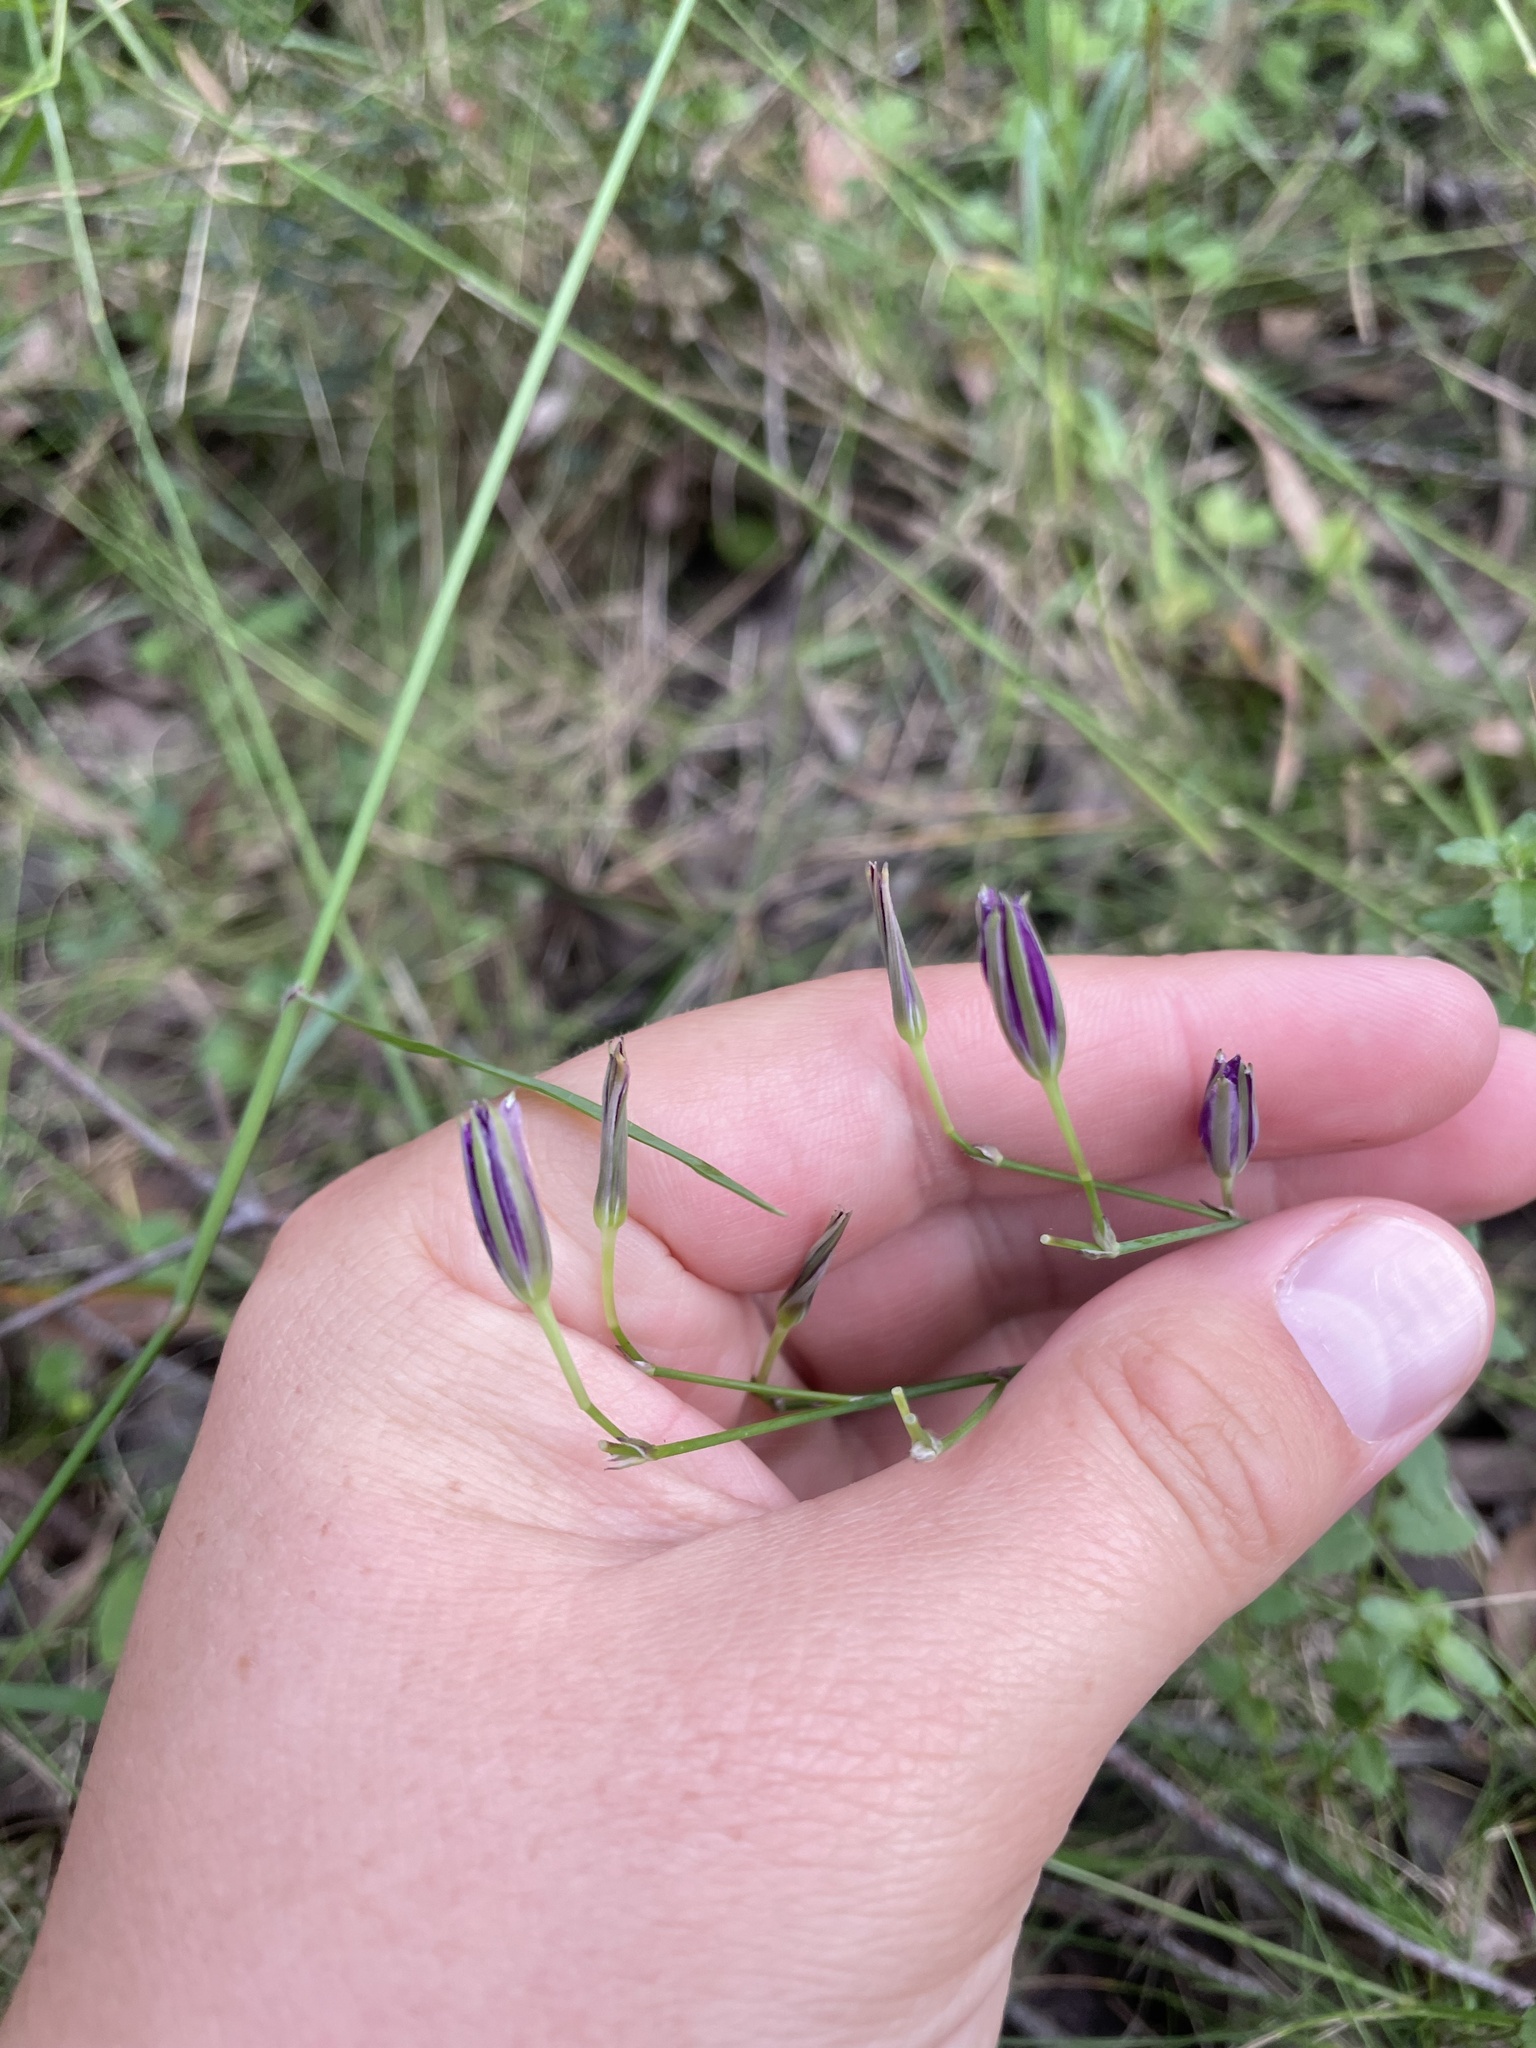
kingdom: Plantae
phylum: Tracheophyta
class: Liliopsida
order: Asparagales
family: Asparagaceae
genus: Thysanotus
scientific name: Thysanotus tuberosus
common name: Common fringed-lily
